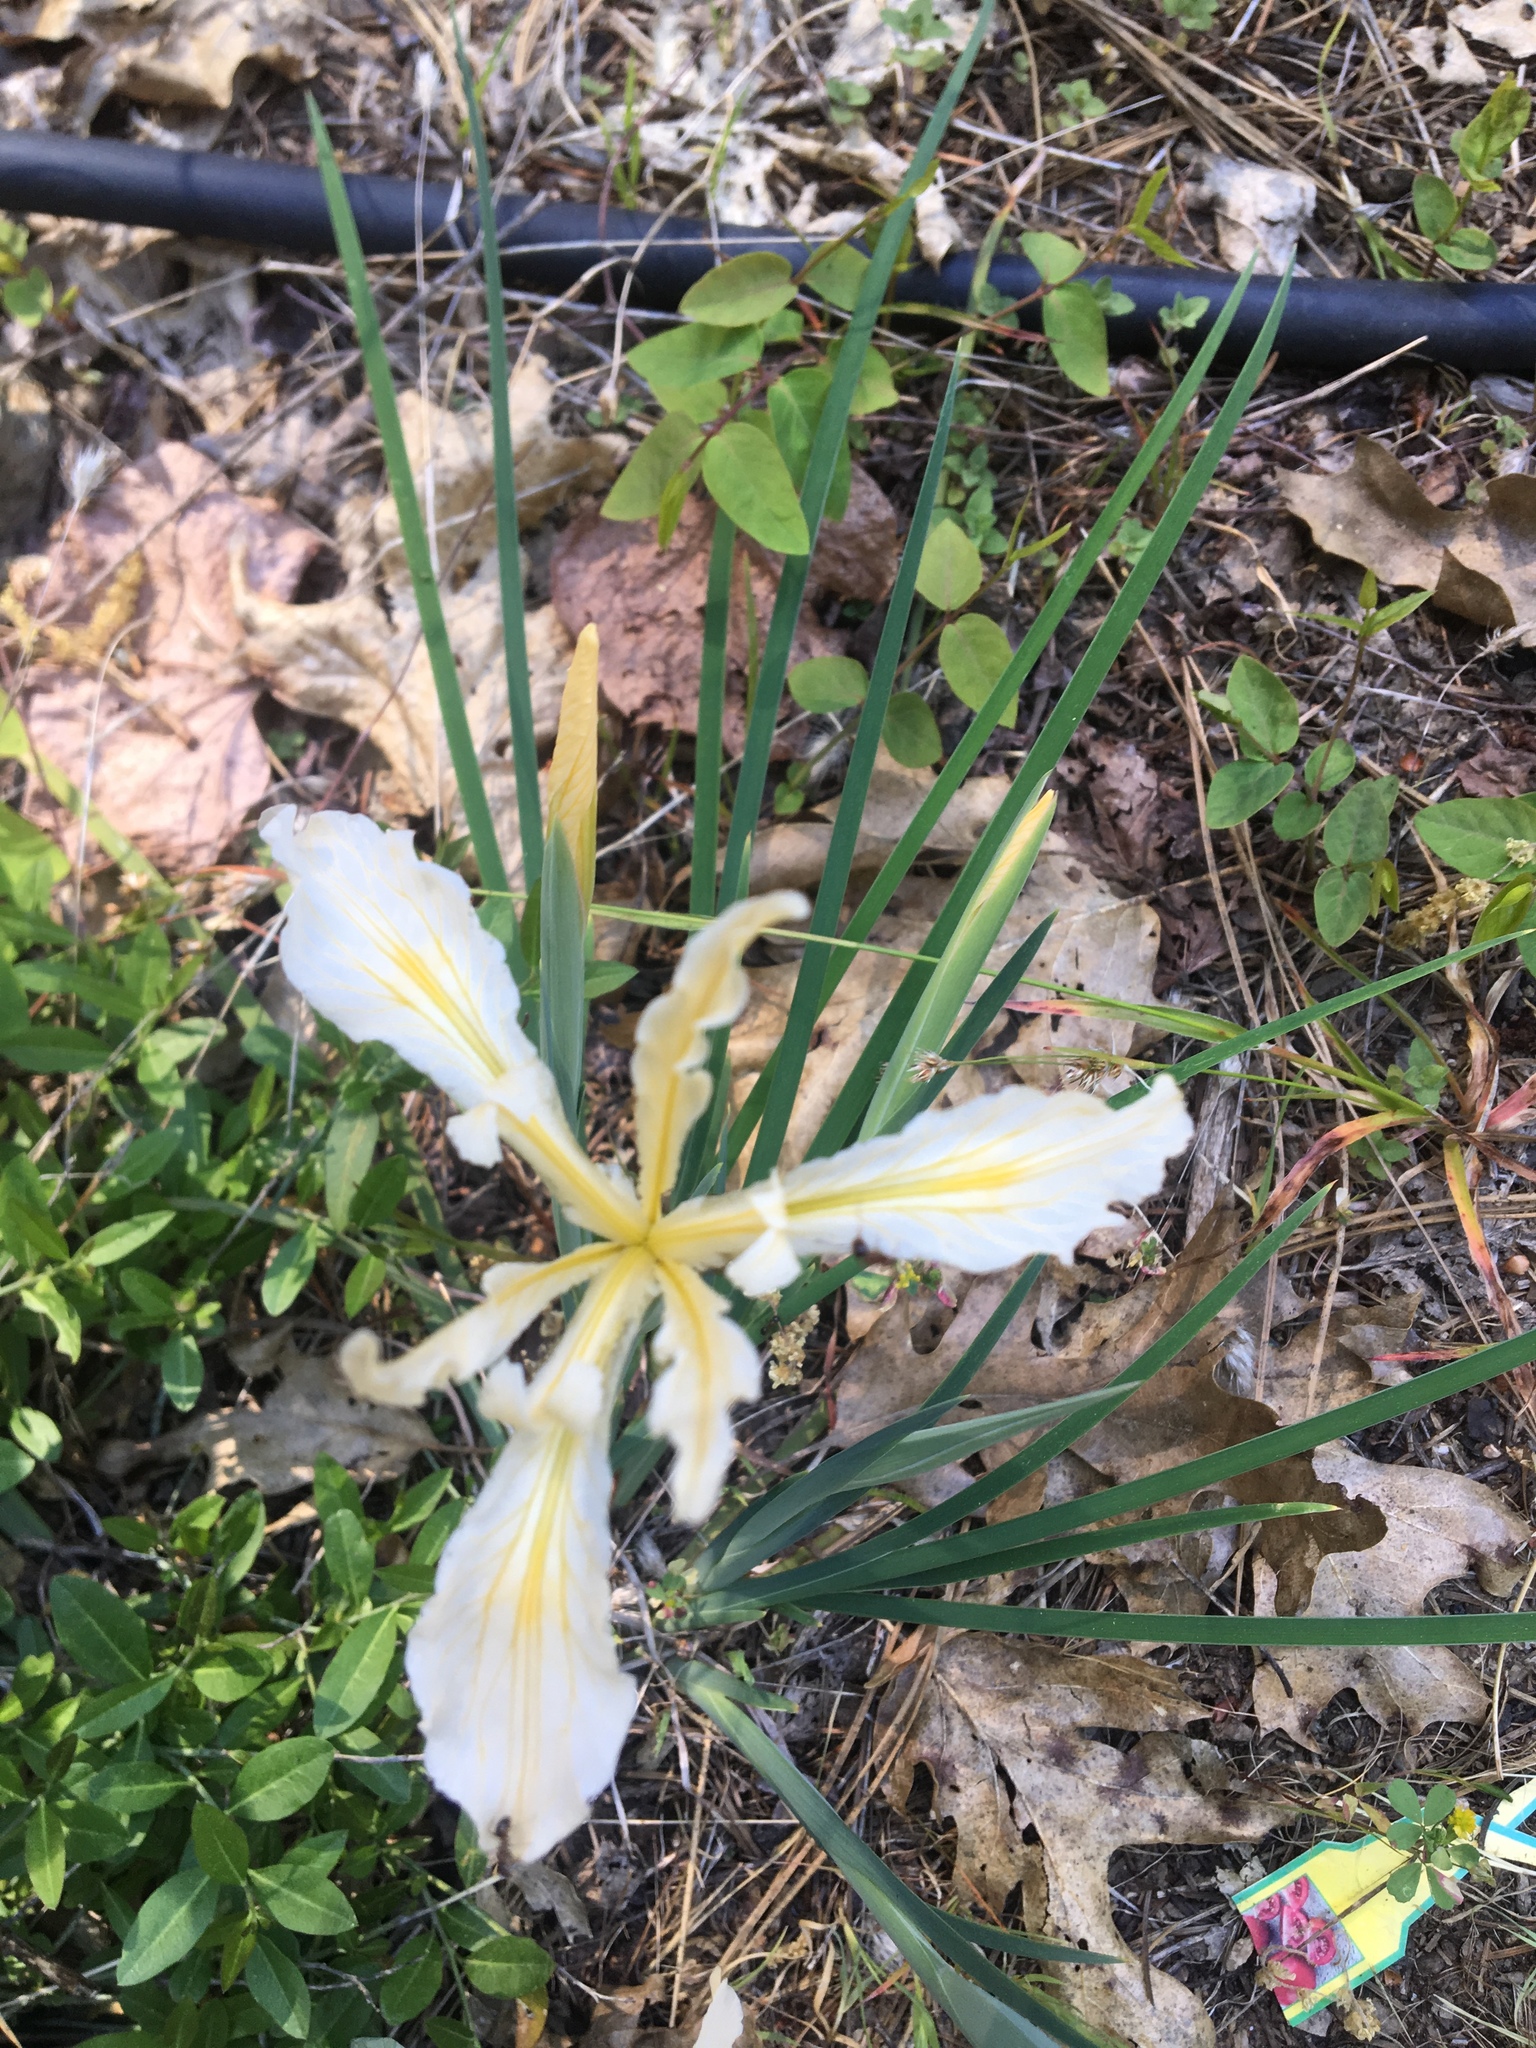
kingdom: Plantae
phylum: Tracheophyta
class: Liliopsida
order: Asparagales
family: Iridaceae
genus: Iris
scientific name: Iris hartwegii
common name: Sierra iris
